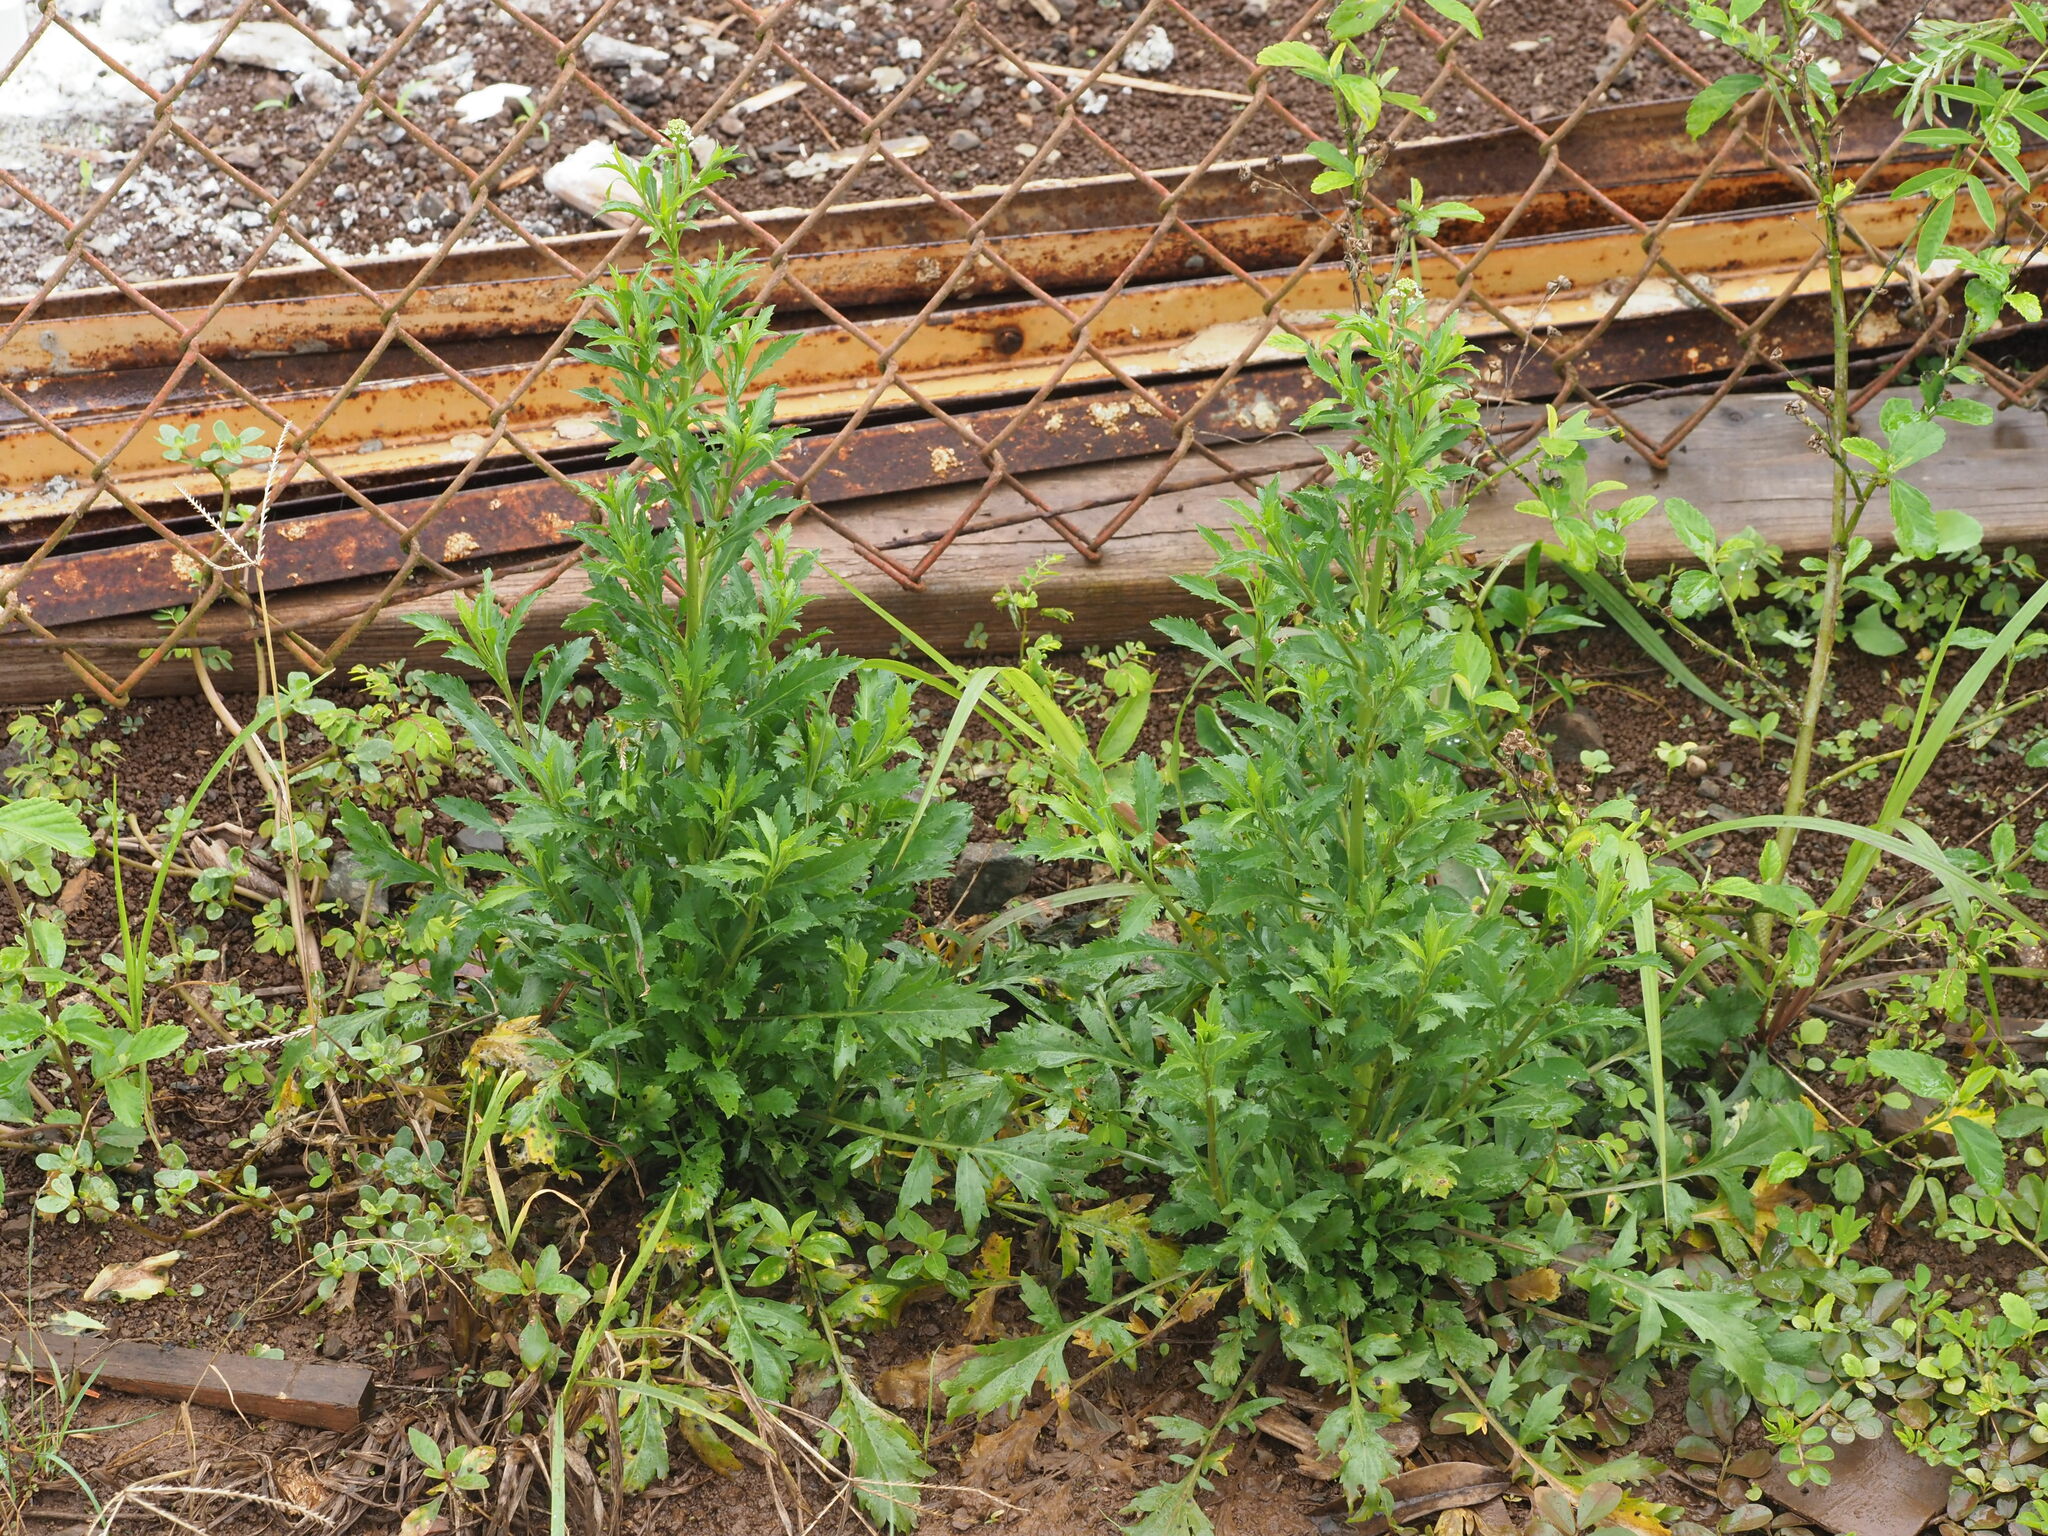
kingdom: Plantae
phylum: Tracheophyta
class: Magnoliopsida
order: Brassicales
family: Brassicaceae
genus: Lepidium
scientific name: Lepidium virginicum
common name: Least pepperwort
